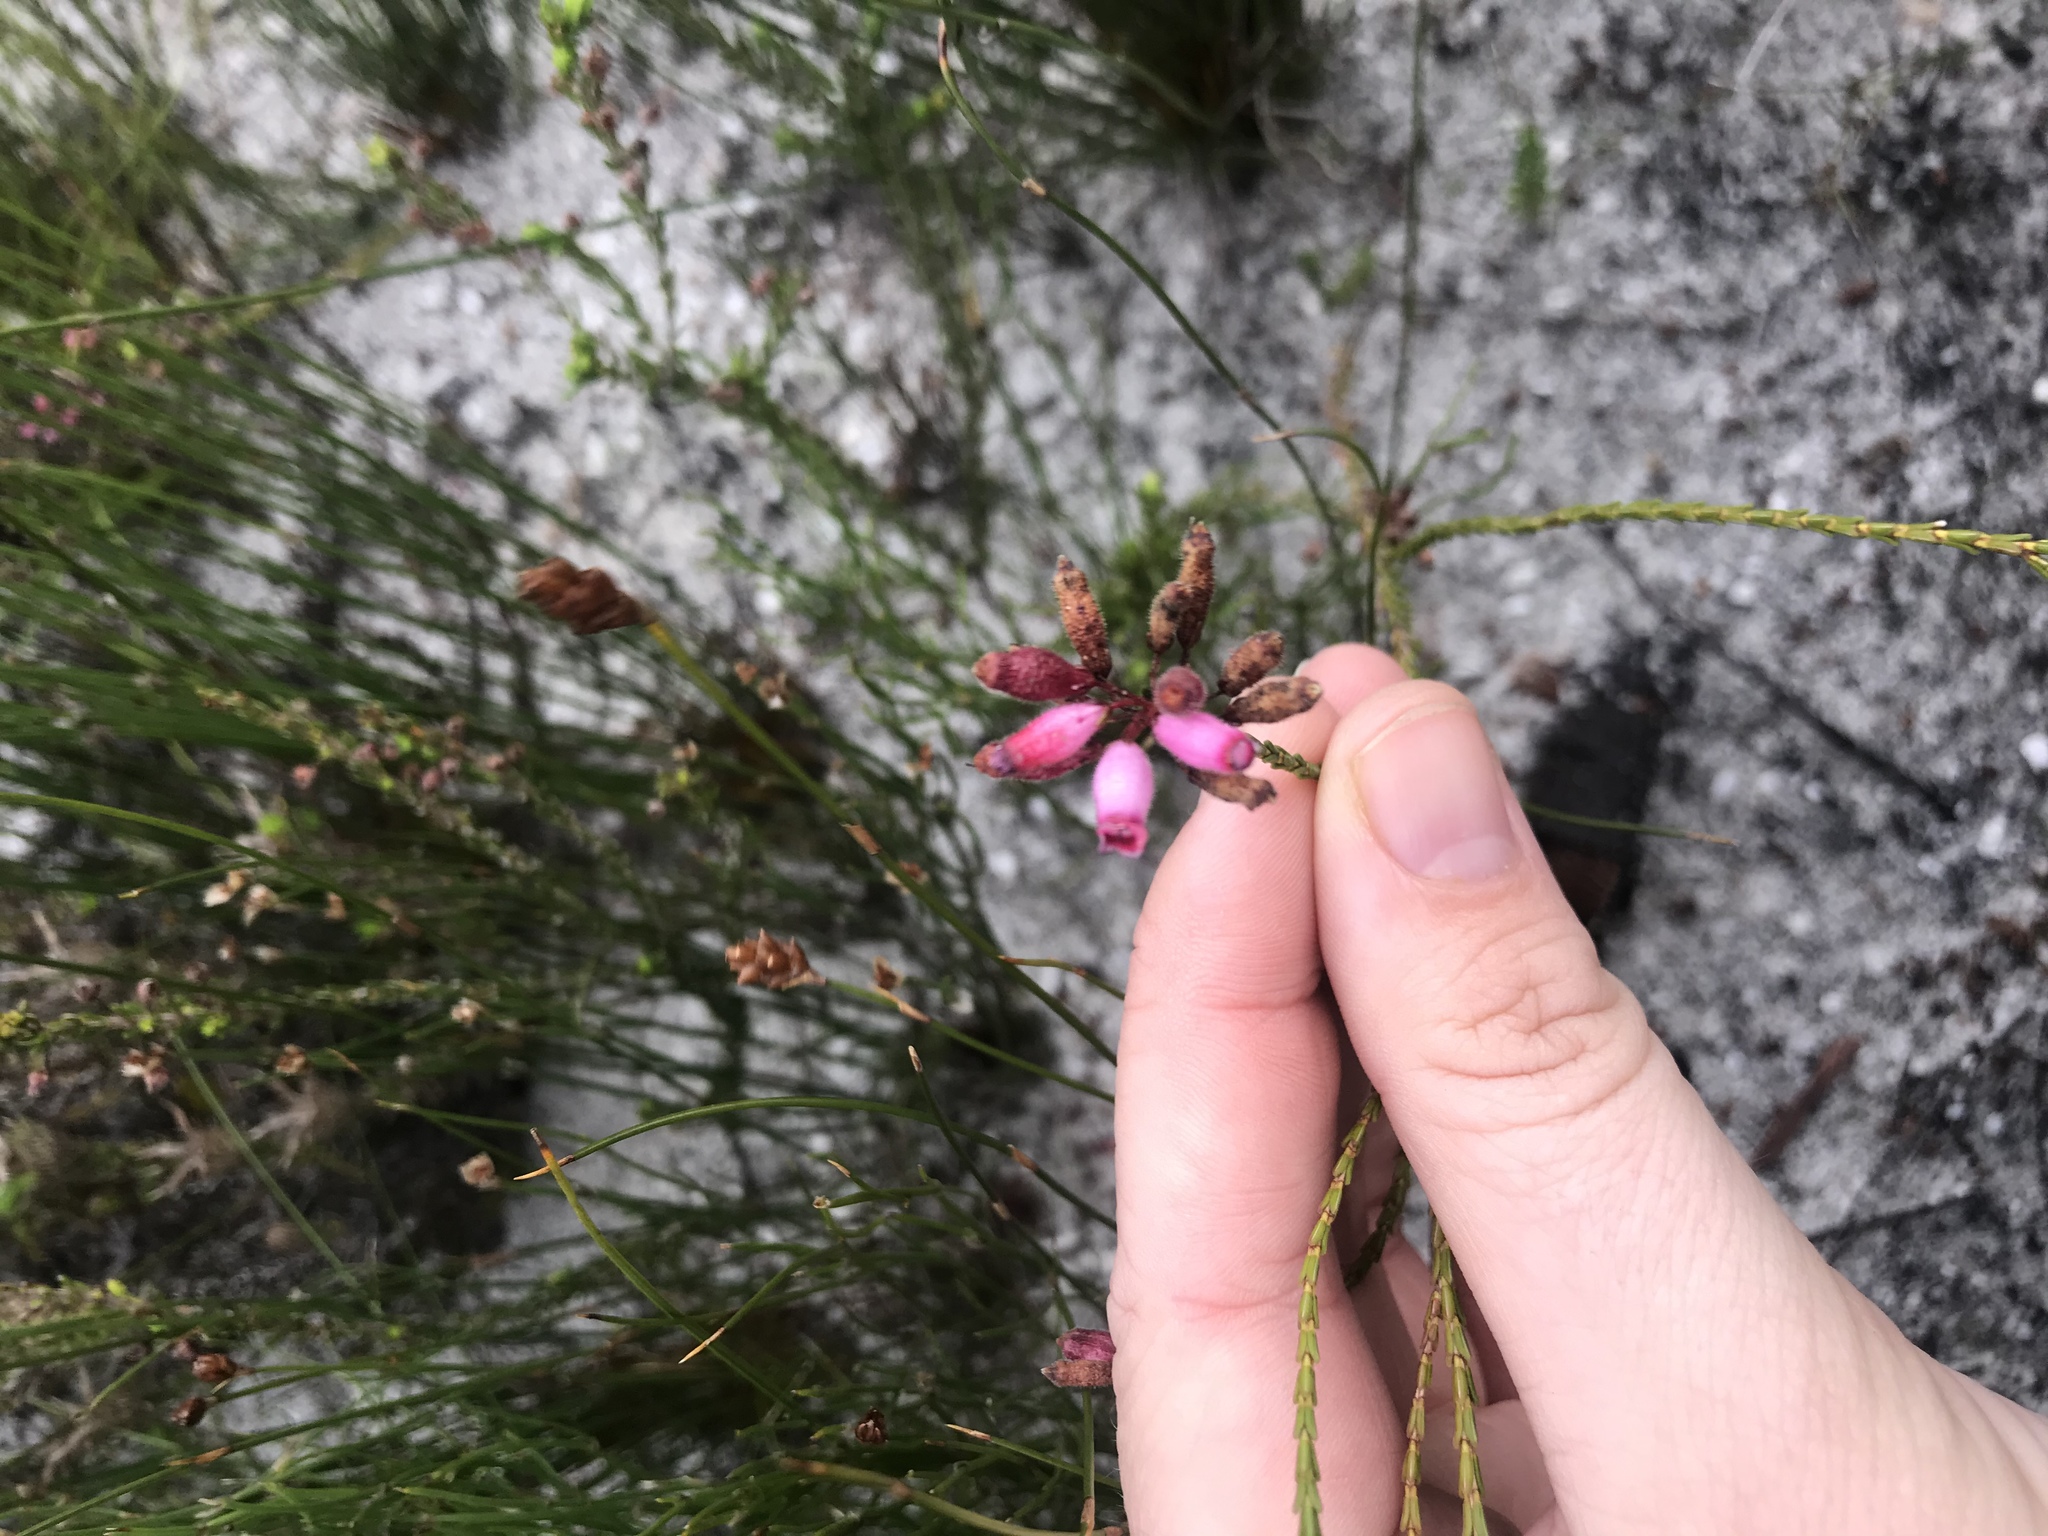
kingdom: Plantae
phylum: Tracheophyta
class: Magnoliopsida
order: Ericales
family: Ericaceae
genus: Erica
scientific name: Erica cristata
